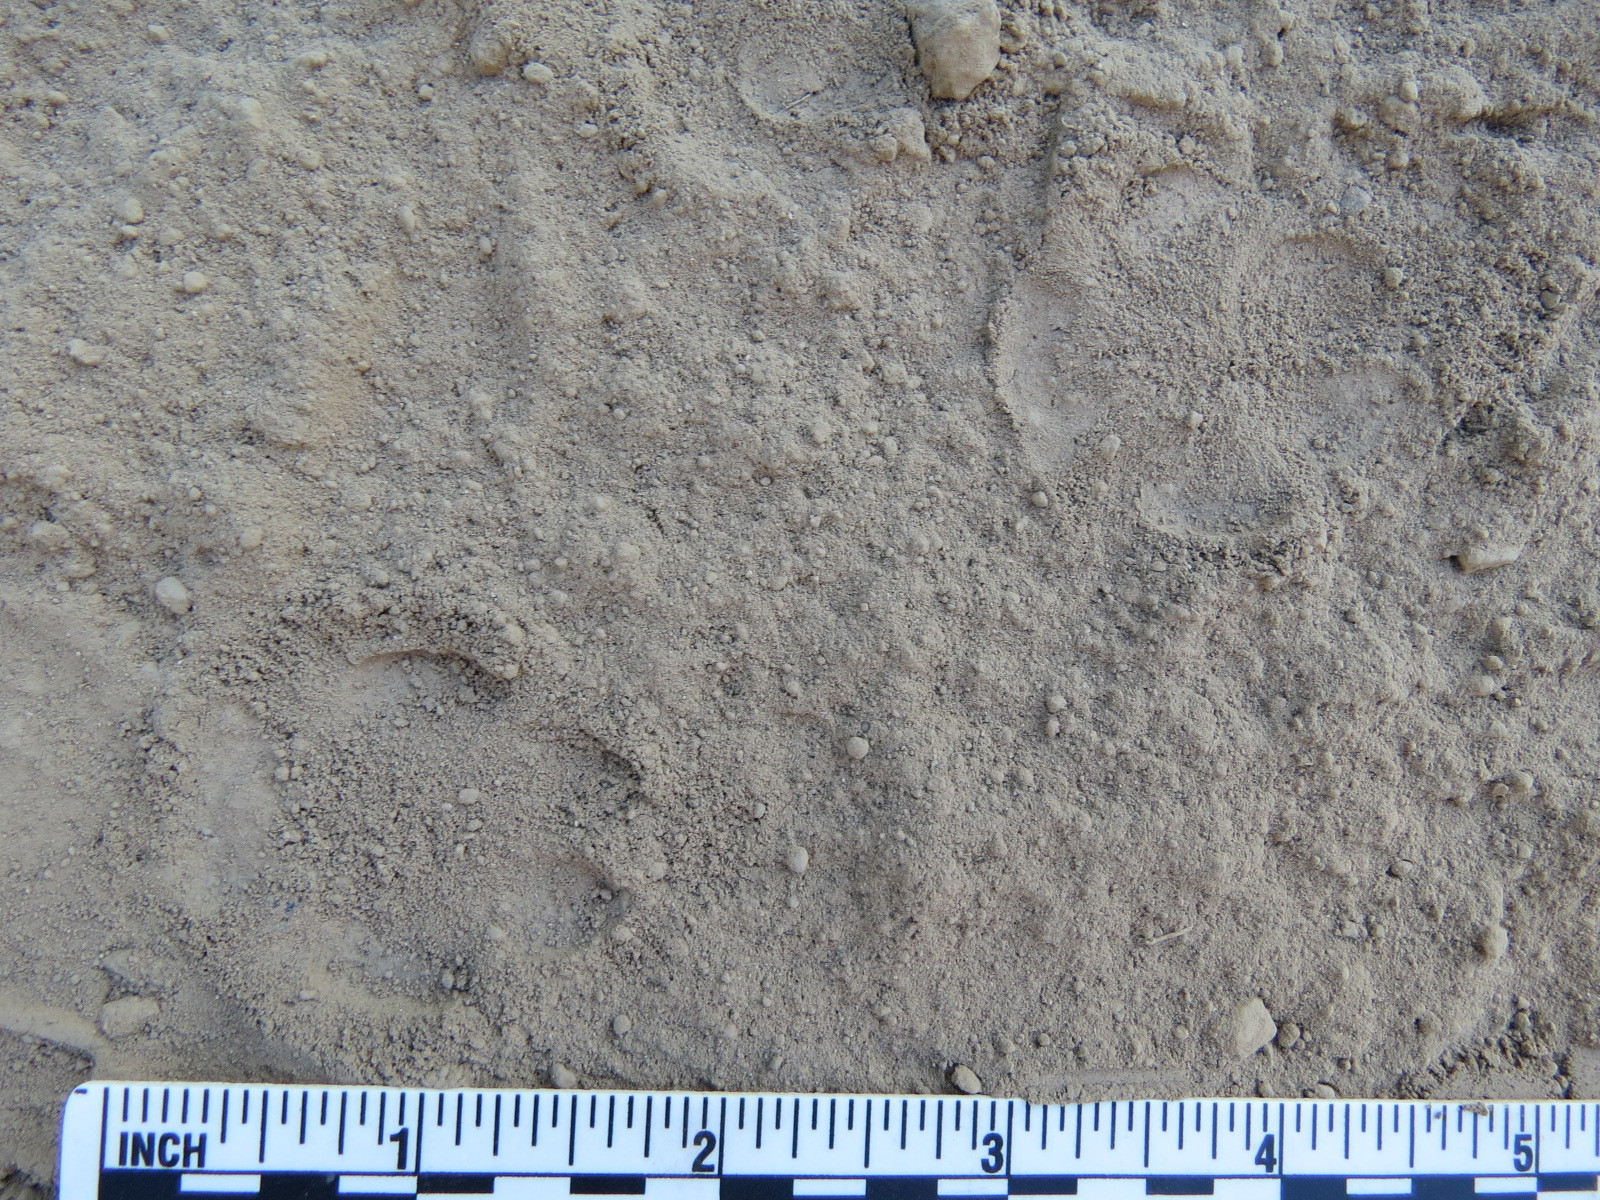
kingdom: Animalia
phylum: Chordata
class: Mammalia
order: Carnivora
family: Canidae
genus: Urocyon
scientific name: Urocyon cinereoargenteus
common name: Gray fox
